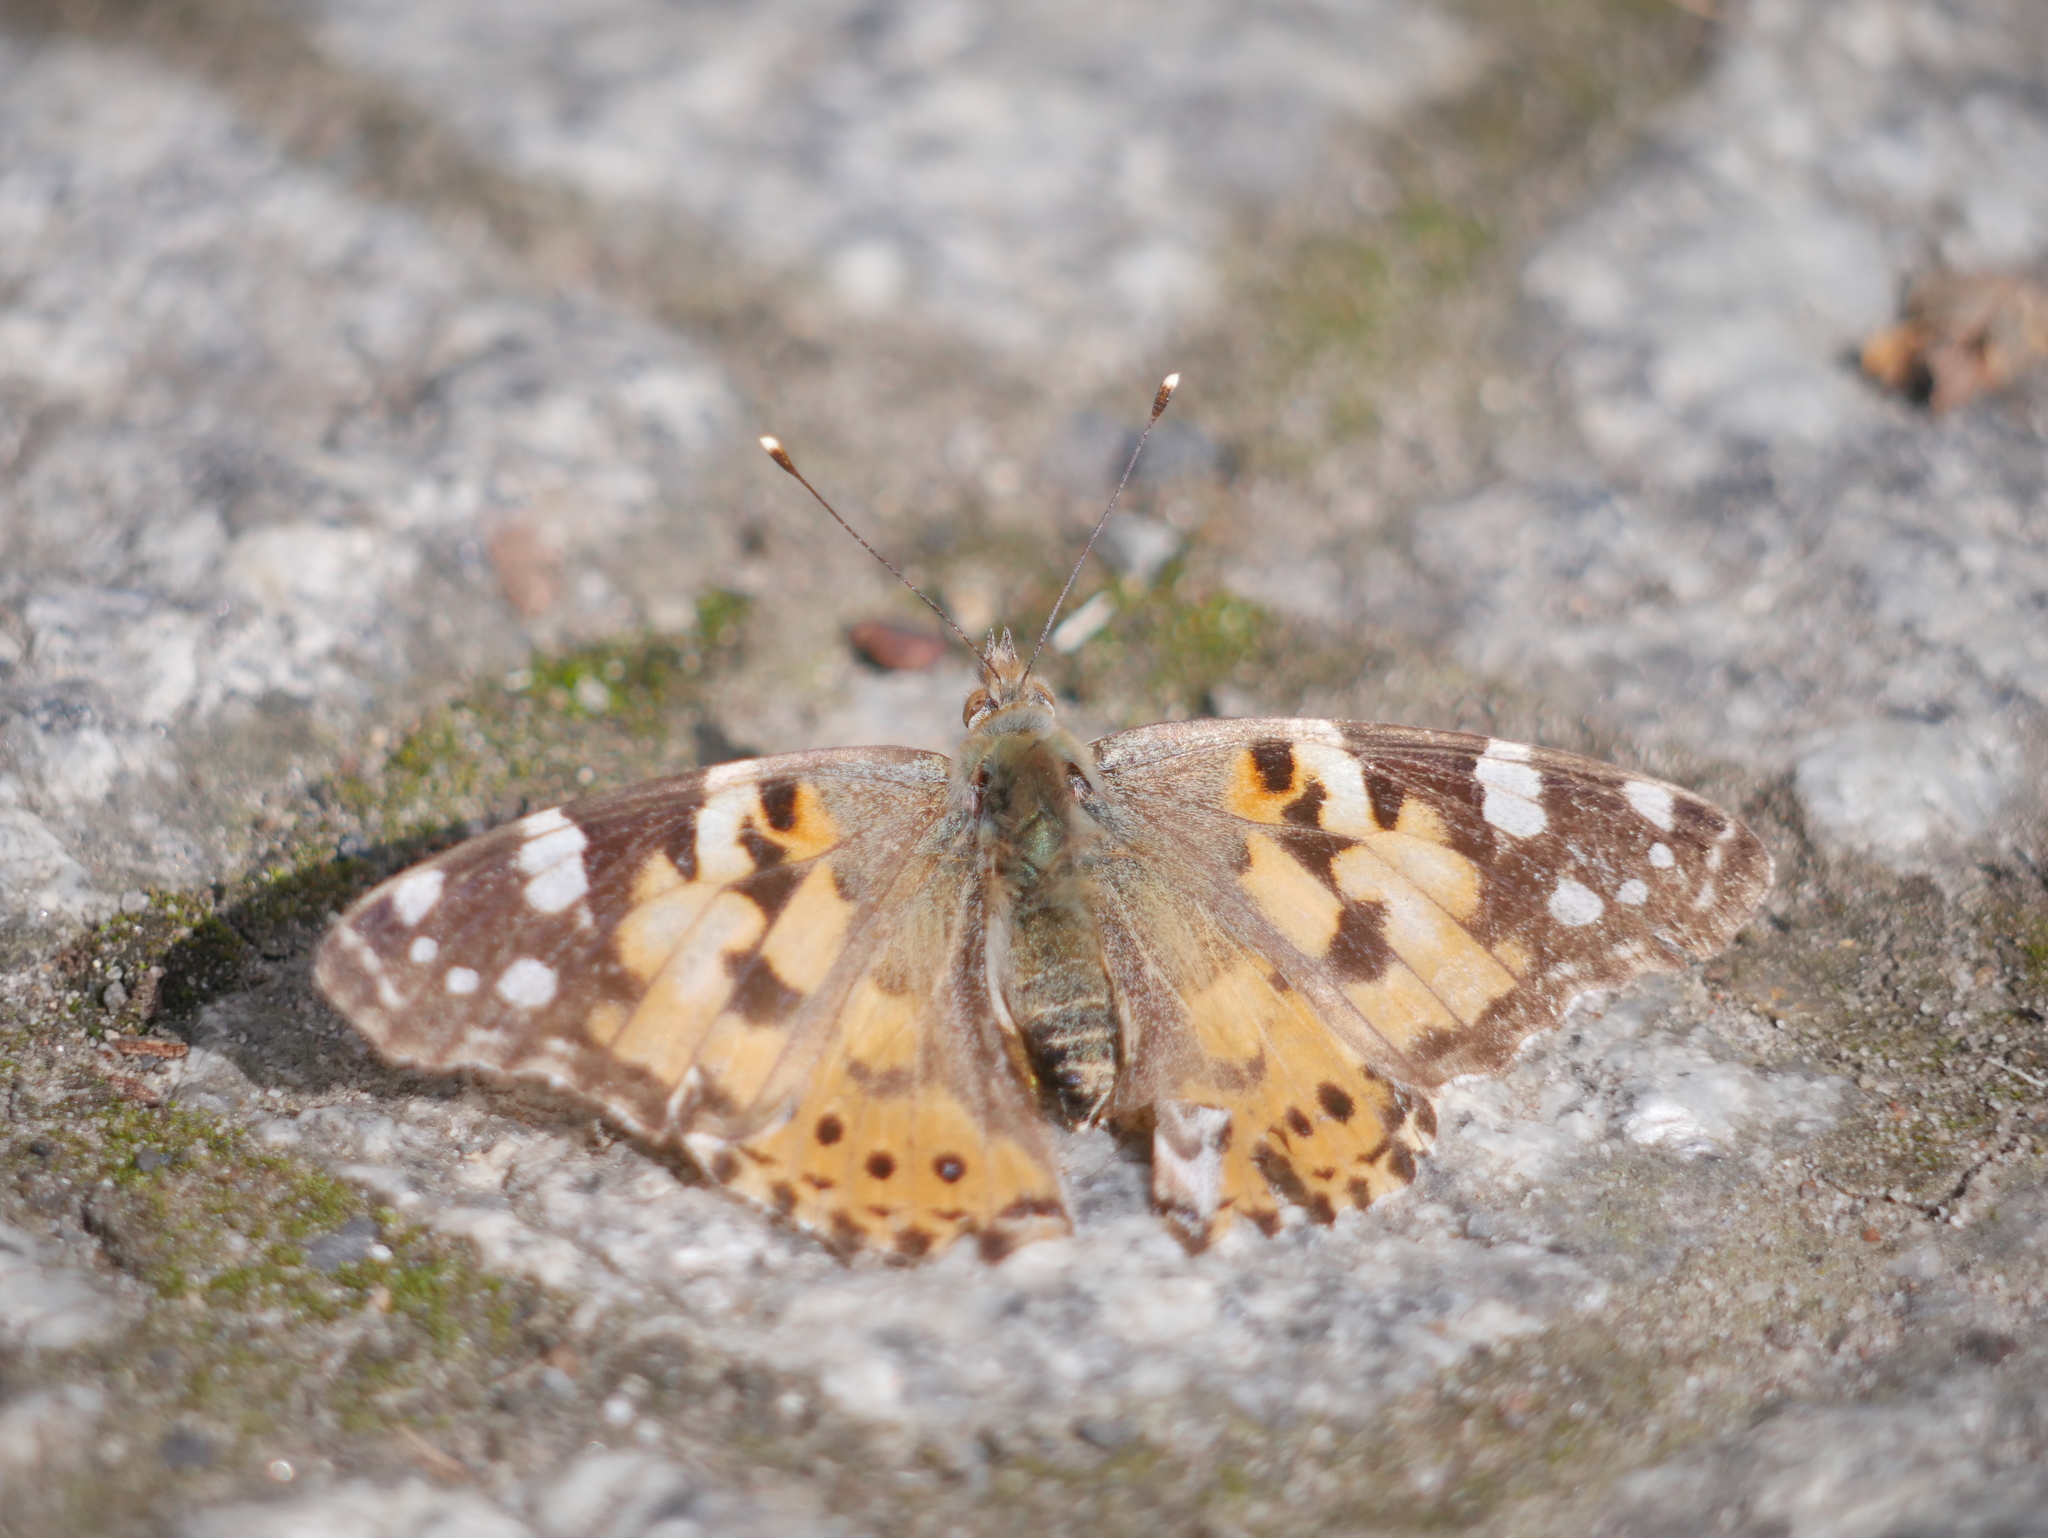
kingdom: Animalia
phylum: Arthropoda
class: Insecta
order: Lepidoptera
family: Nymphalidae
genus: Vanessa
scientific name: Vanessa cardui
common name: Painted lady
